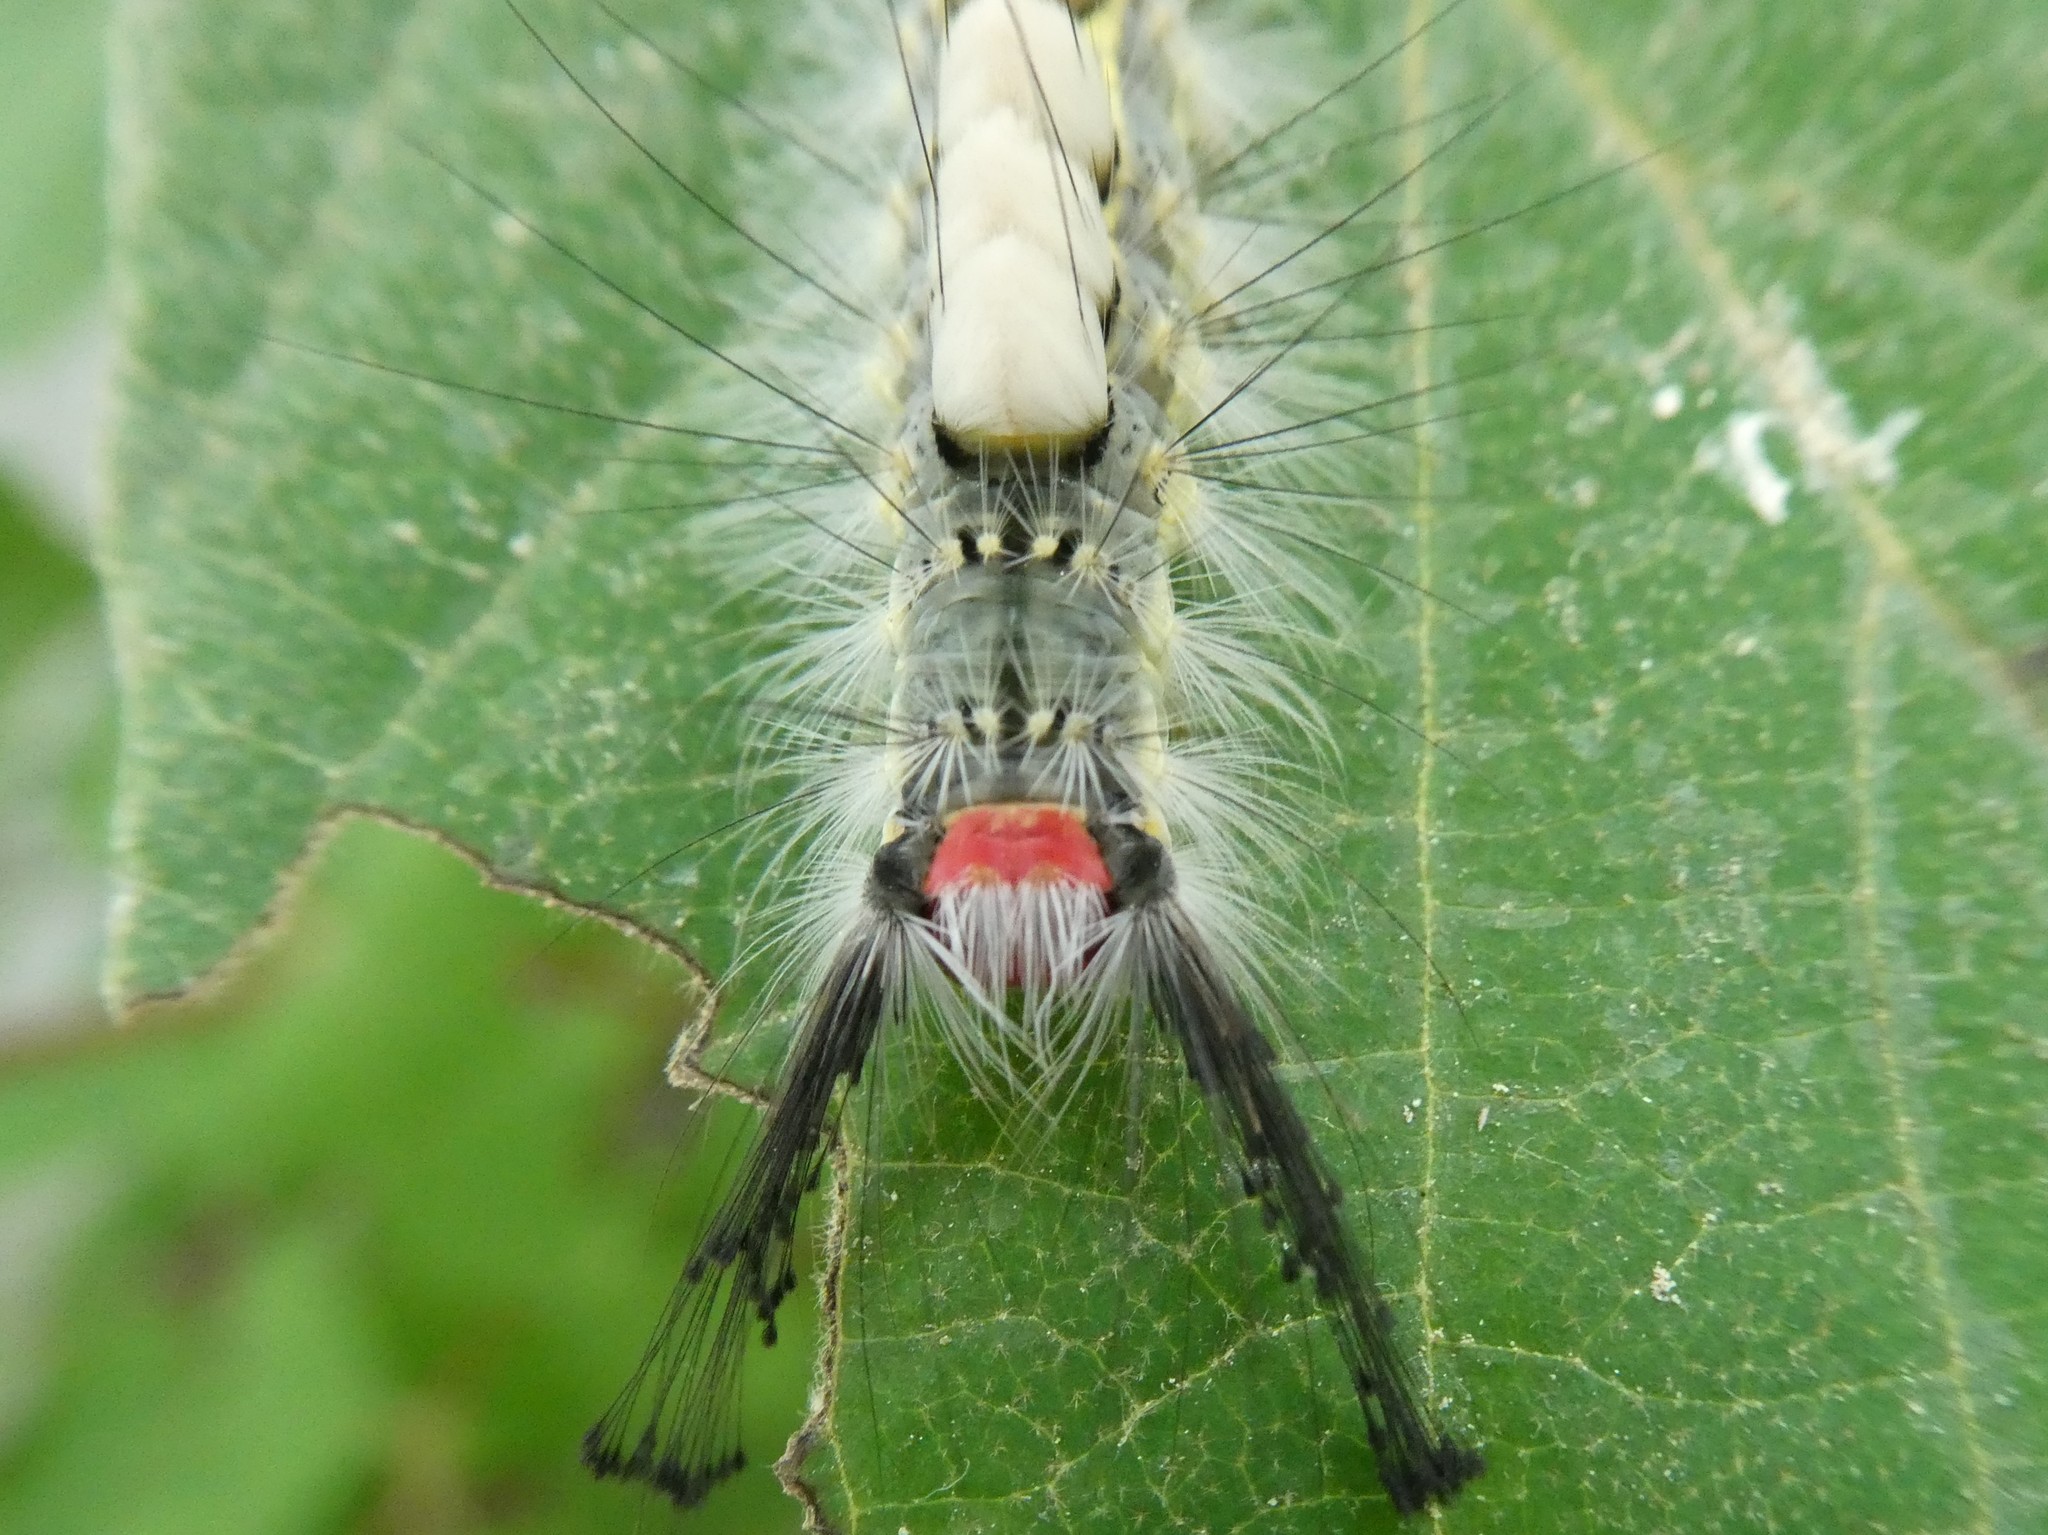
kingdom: Animalia
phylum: Arthropoda
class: Insecta
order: Lepidoptera
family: Erebidae
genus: Orgyia
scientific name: Orgyia leucostigma
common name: White-marked tussock moth
